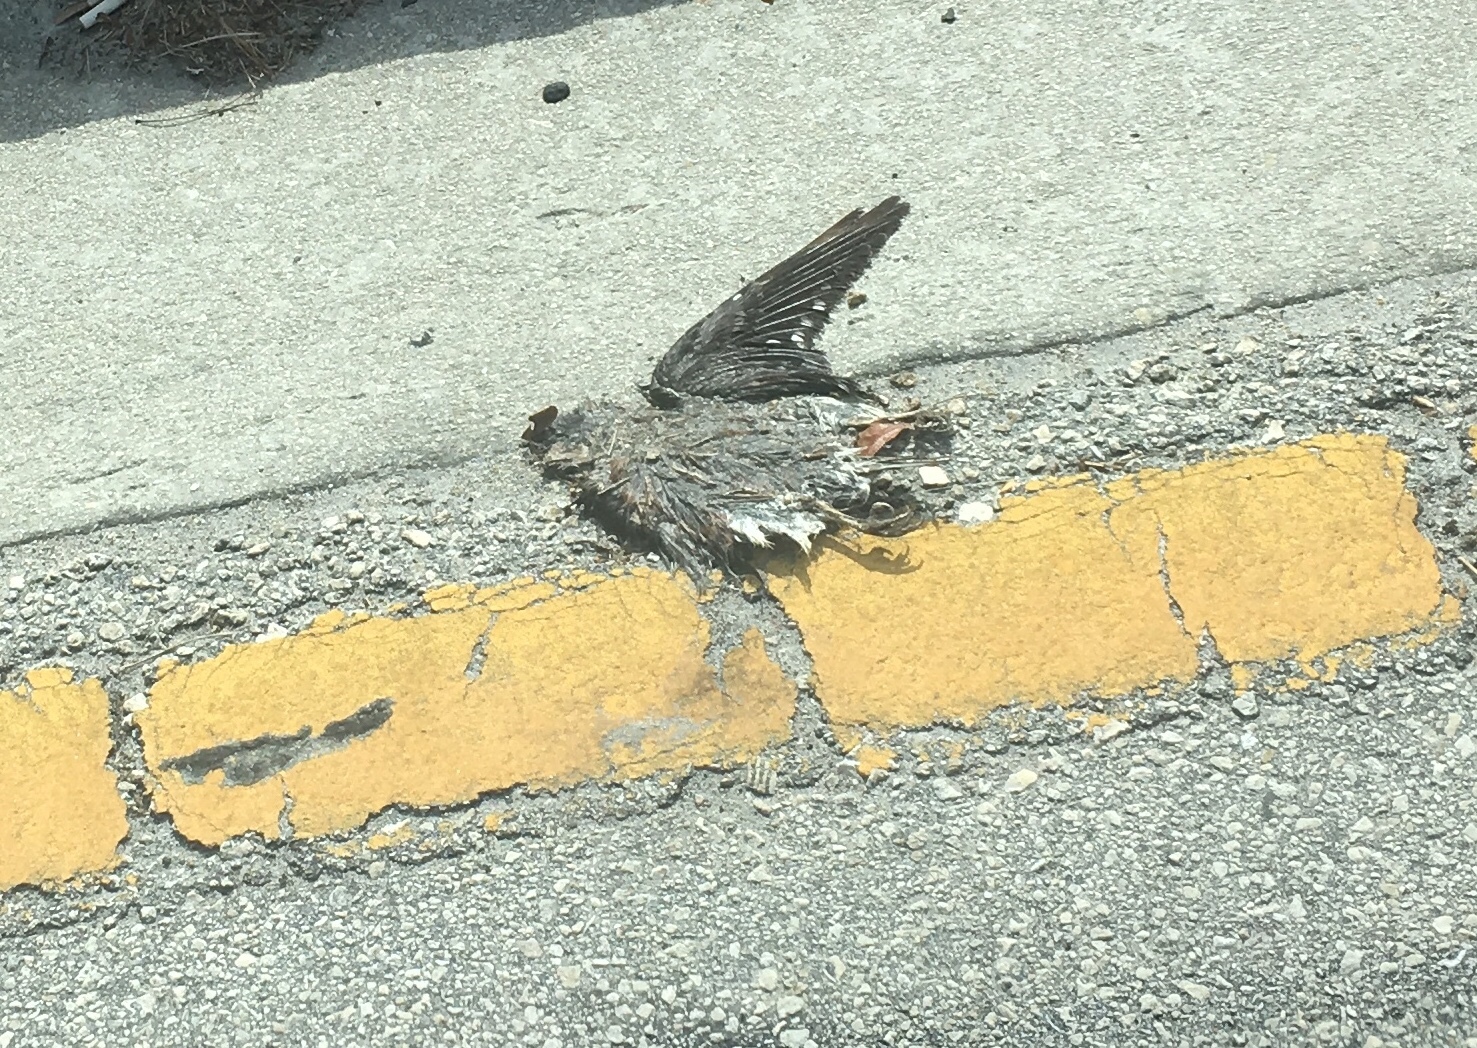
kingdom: Animalia
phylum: Chordata
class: Aves
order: Falconiformes
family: Falconidae
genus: Falco
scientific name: Falco sparverius
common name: American kestrel
